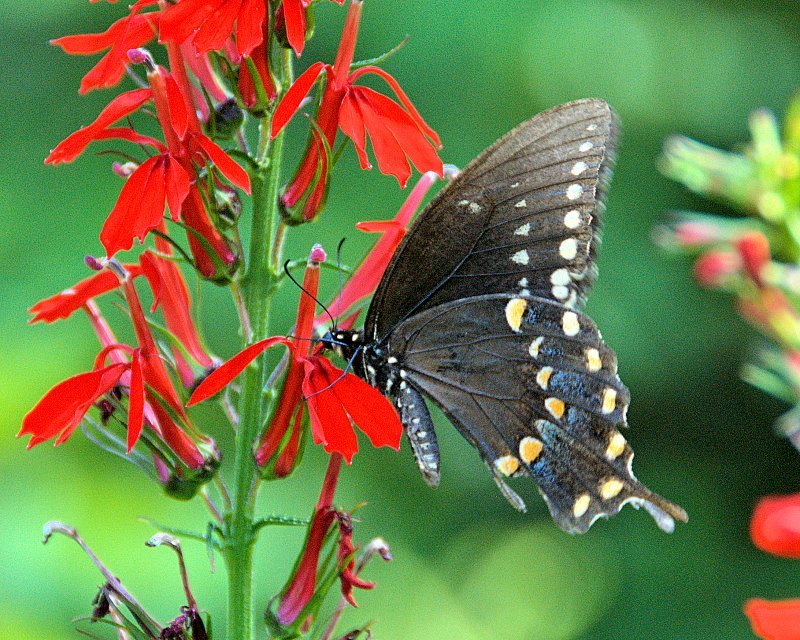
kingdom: Animalia
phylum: Arthropoda
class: Insecta
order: Lepidoptera
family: Papilionidae
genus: Papilio
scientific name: Papilio troilus
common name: Spicebush swallowtail
